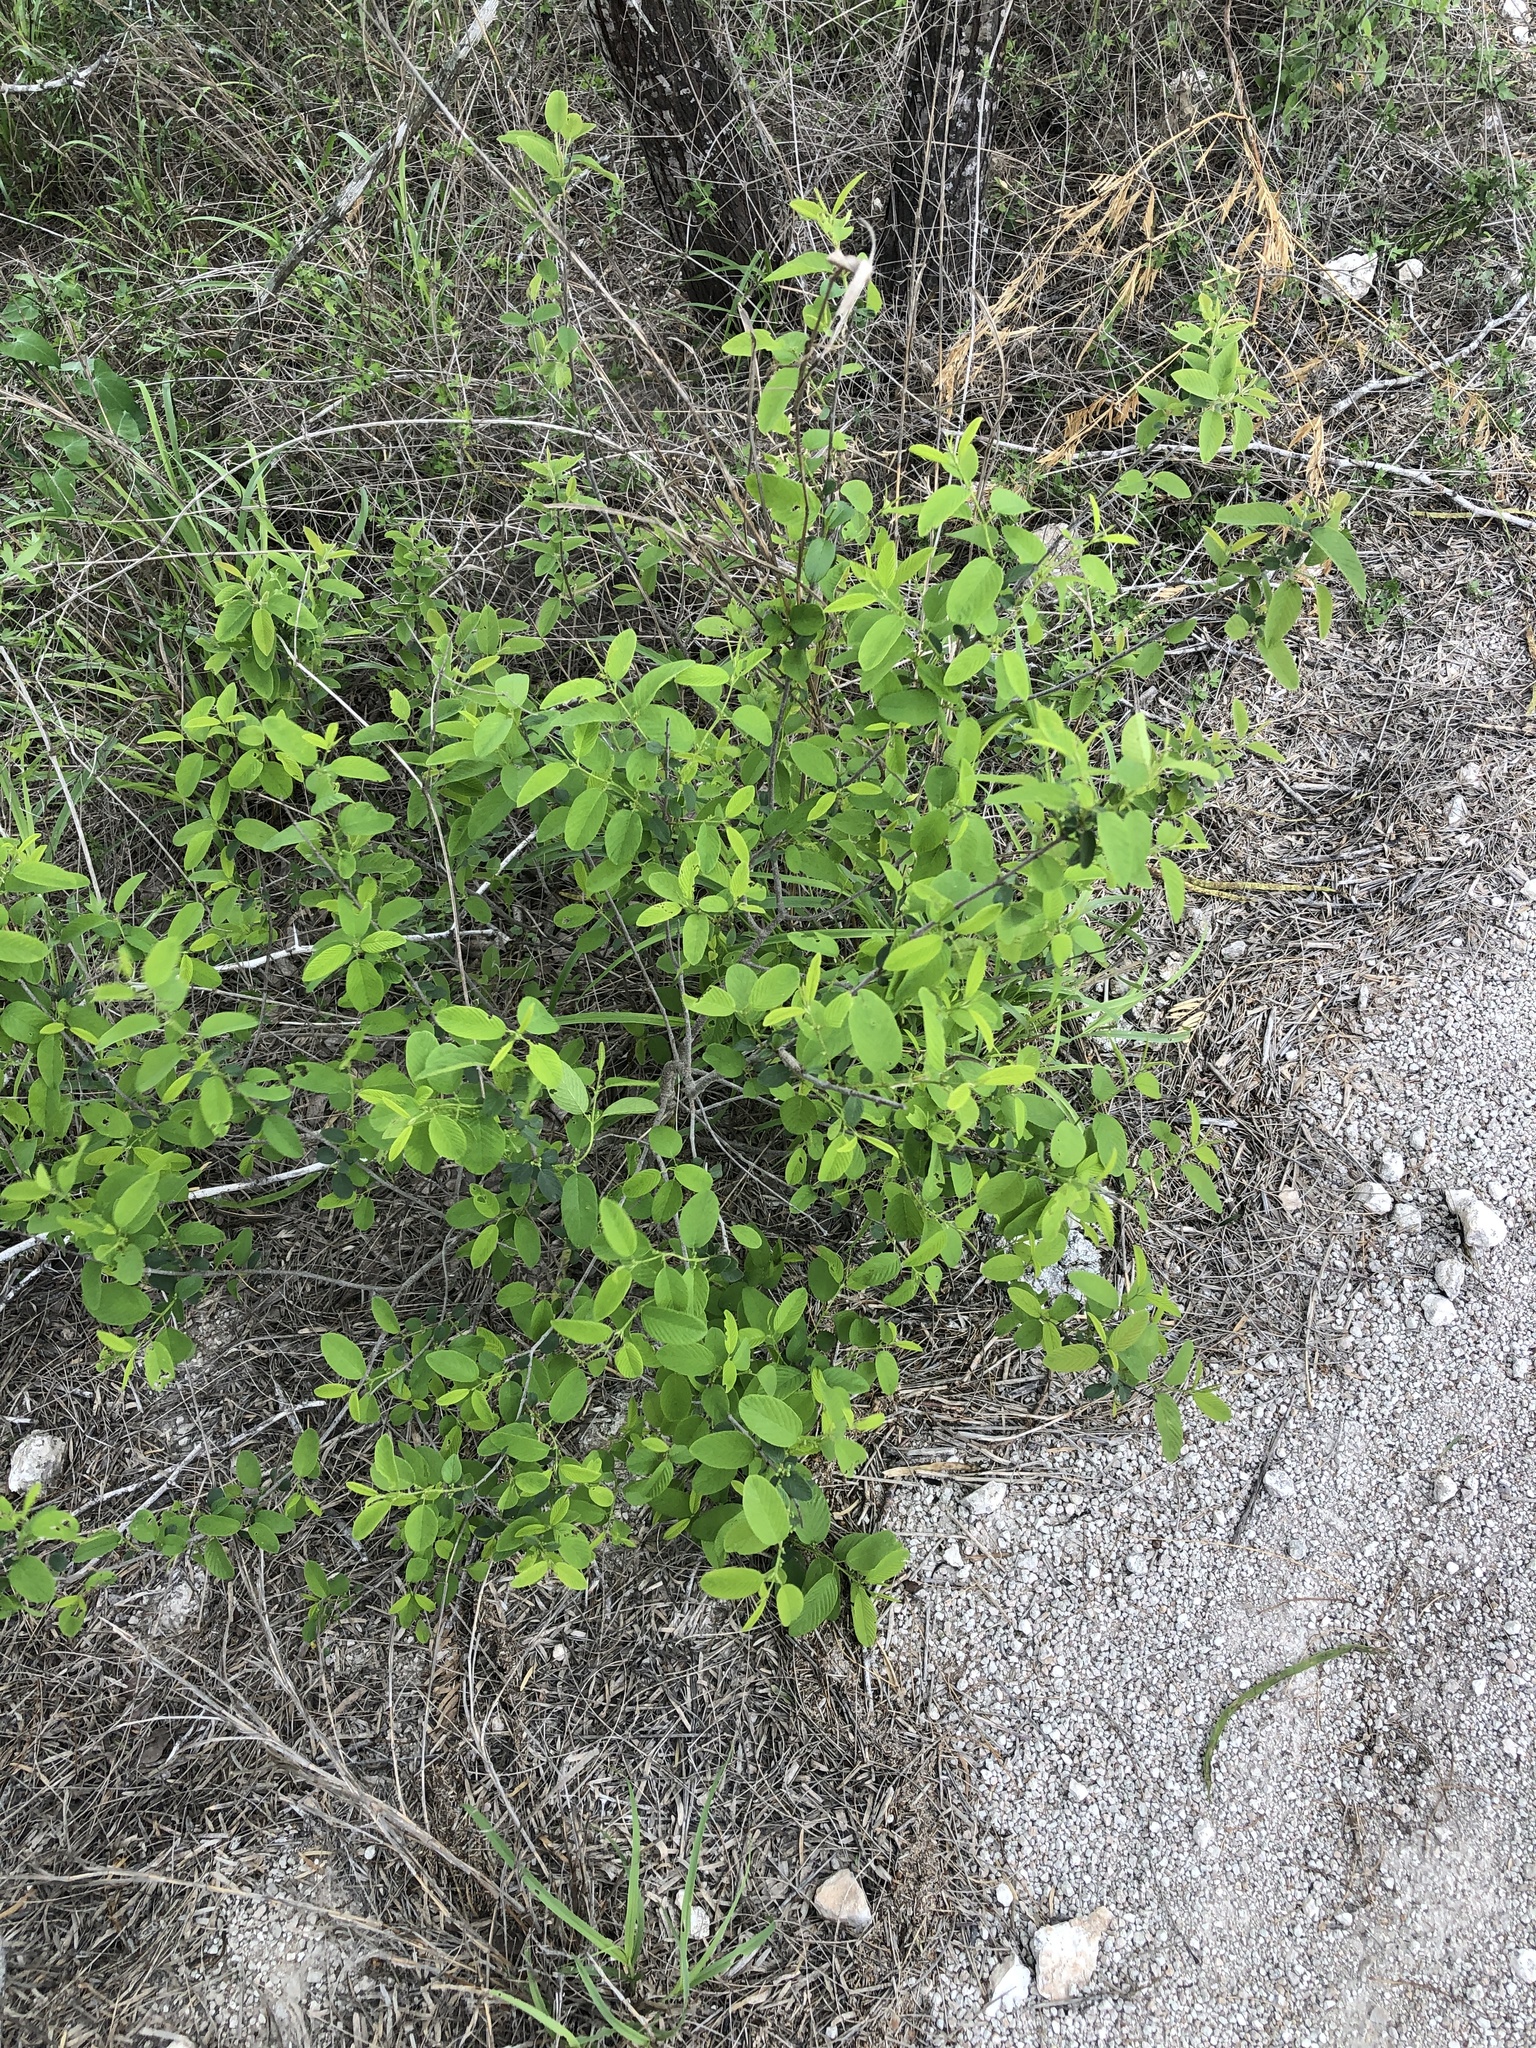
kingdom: Plantae
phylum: Tracheophyta
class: Magnoliopsida
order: Rosales
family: Rhamnaceae
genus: Karwinskia
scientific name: Karwinskia humboldtiana
